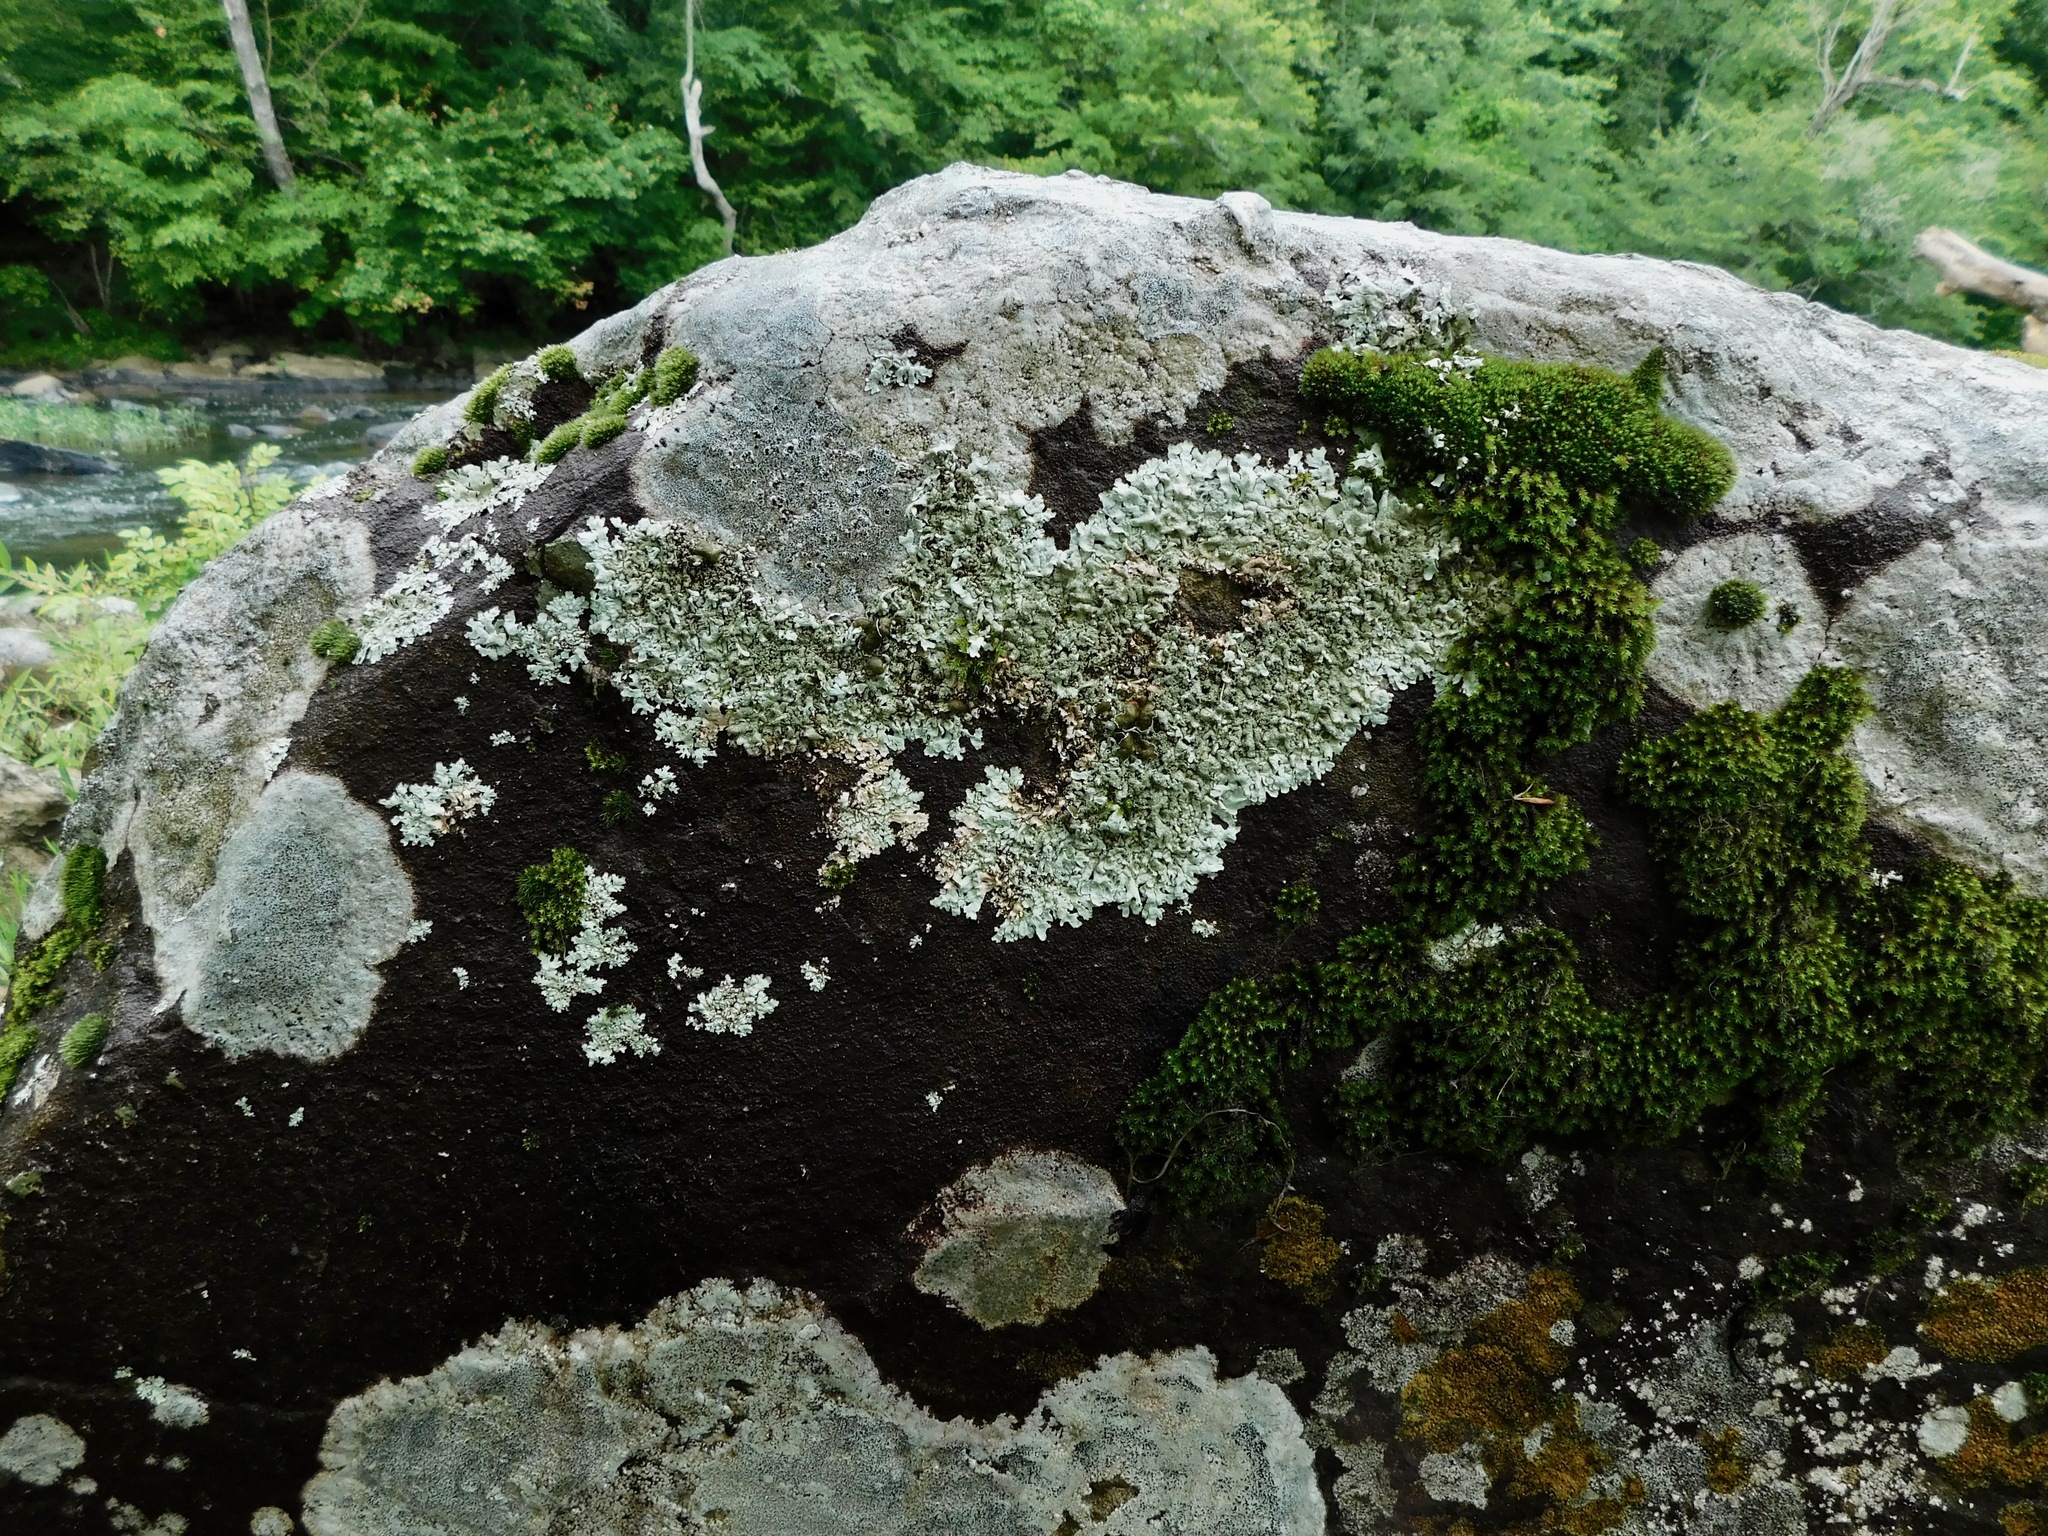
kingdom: Fungi
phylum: Ascomycota
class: Lecanoromycetes
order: Lecanorales
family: Parmeliaceae
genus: Xanthoparmelia
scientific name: Xanthoparmelia conspersa
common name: Peppered rock shield
